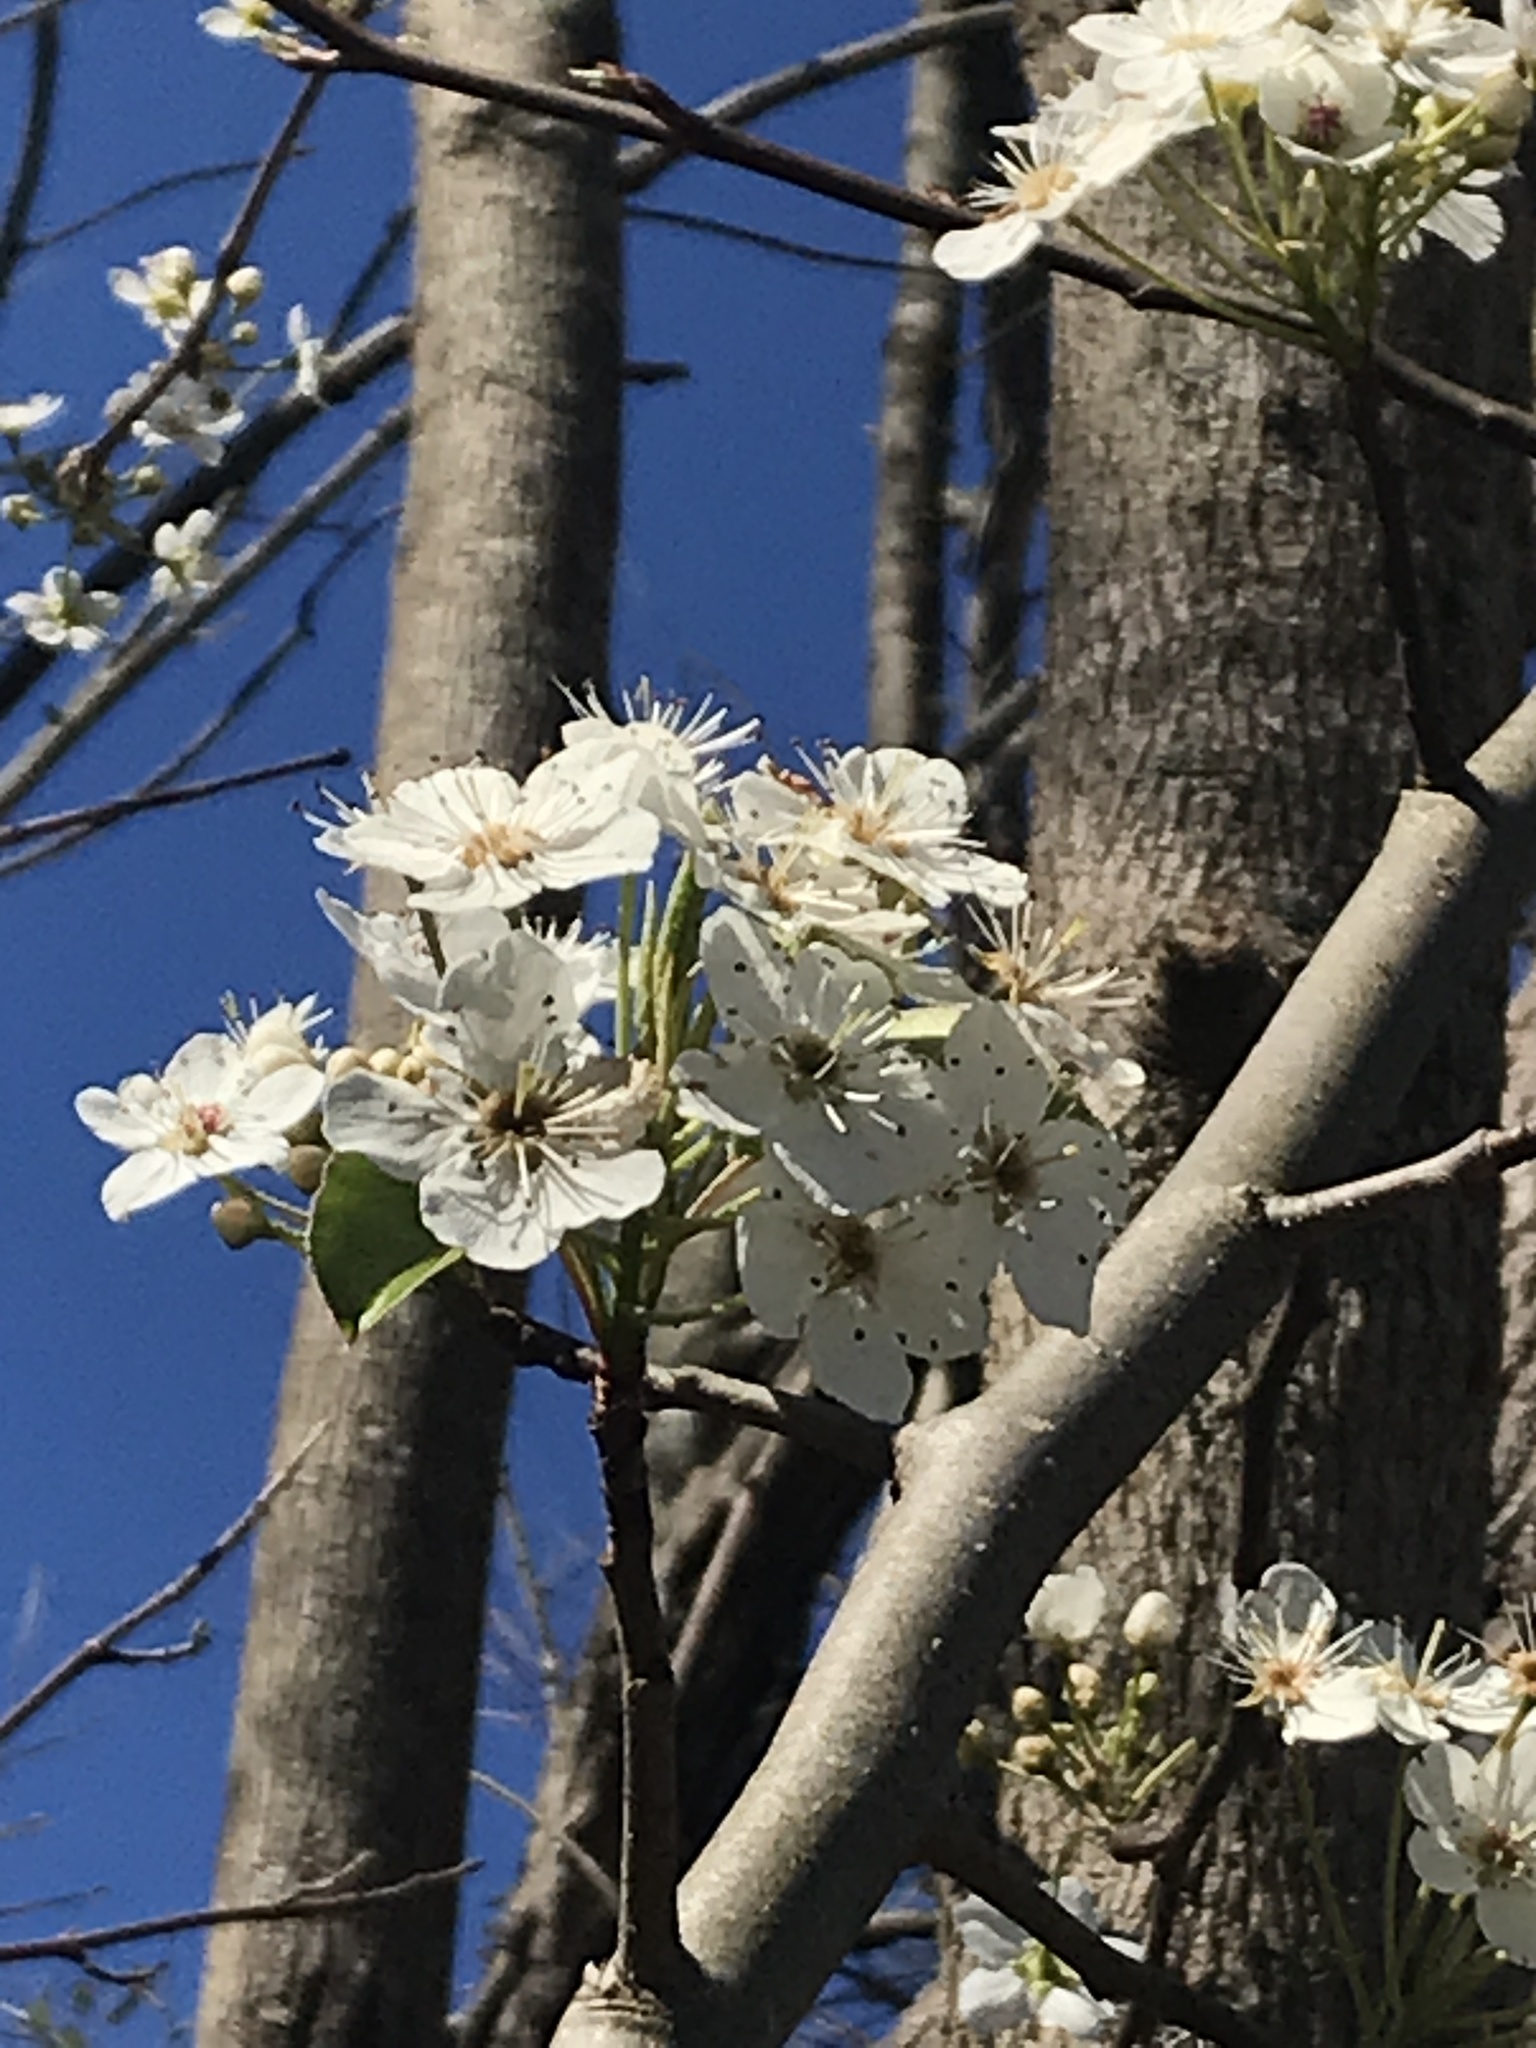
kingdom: Plantae
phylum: Tracheophyta
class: Magnoliopsida
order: Rosales
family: Rosaceae
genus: Pyrus
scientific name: Pyrus calleryana
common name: Callery pear
